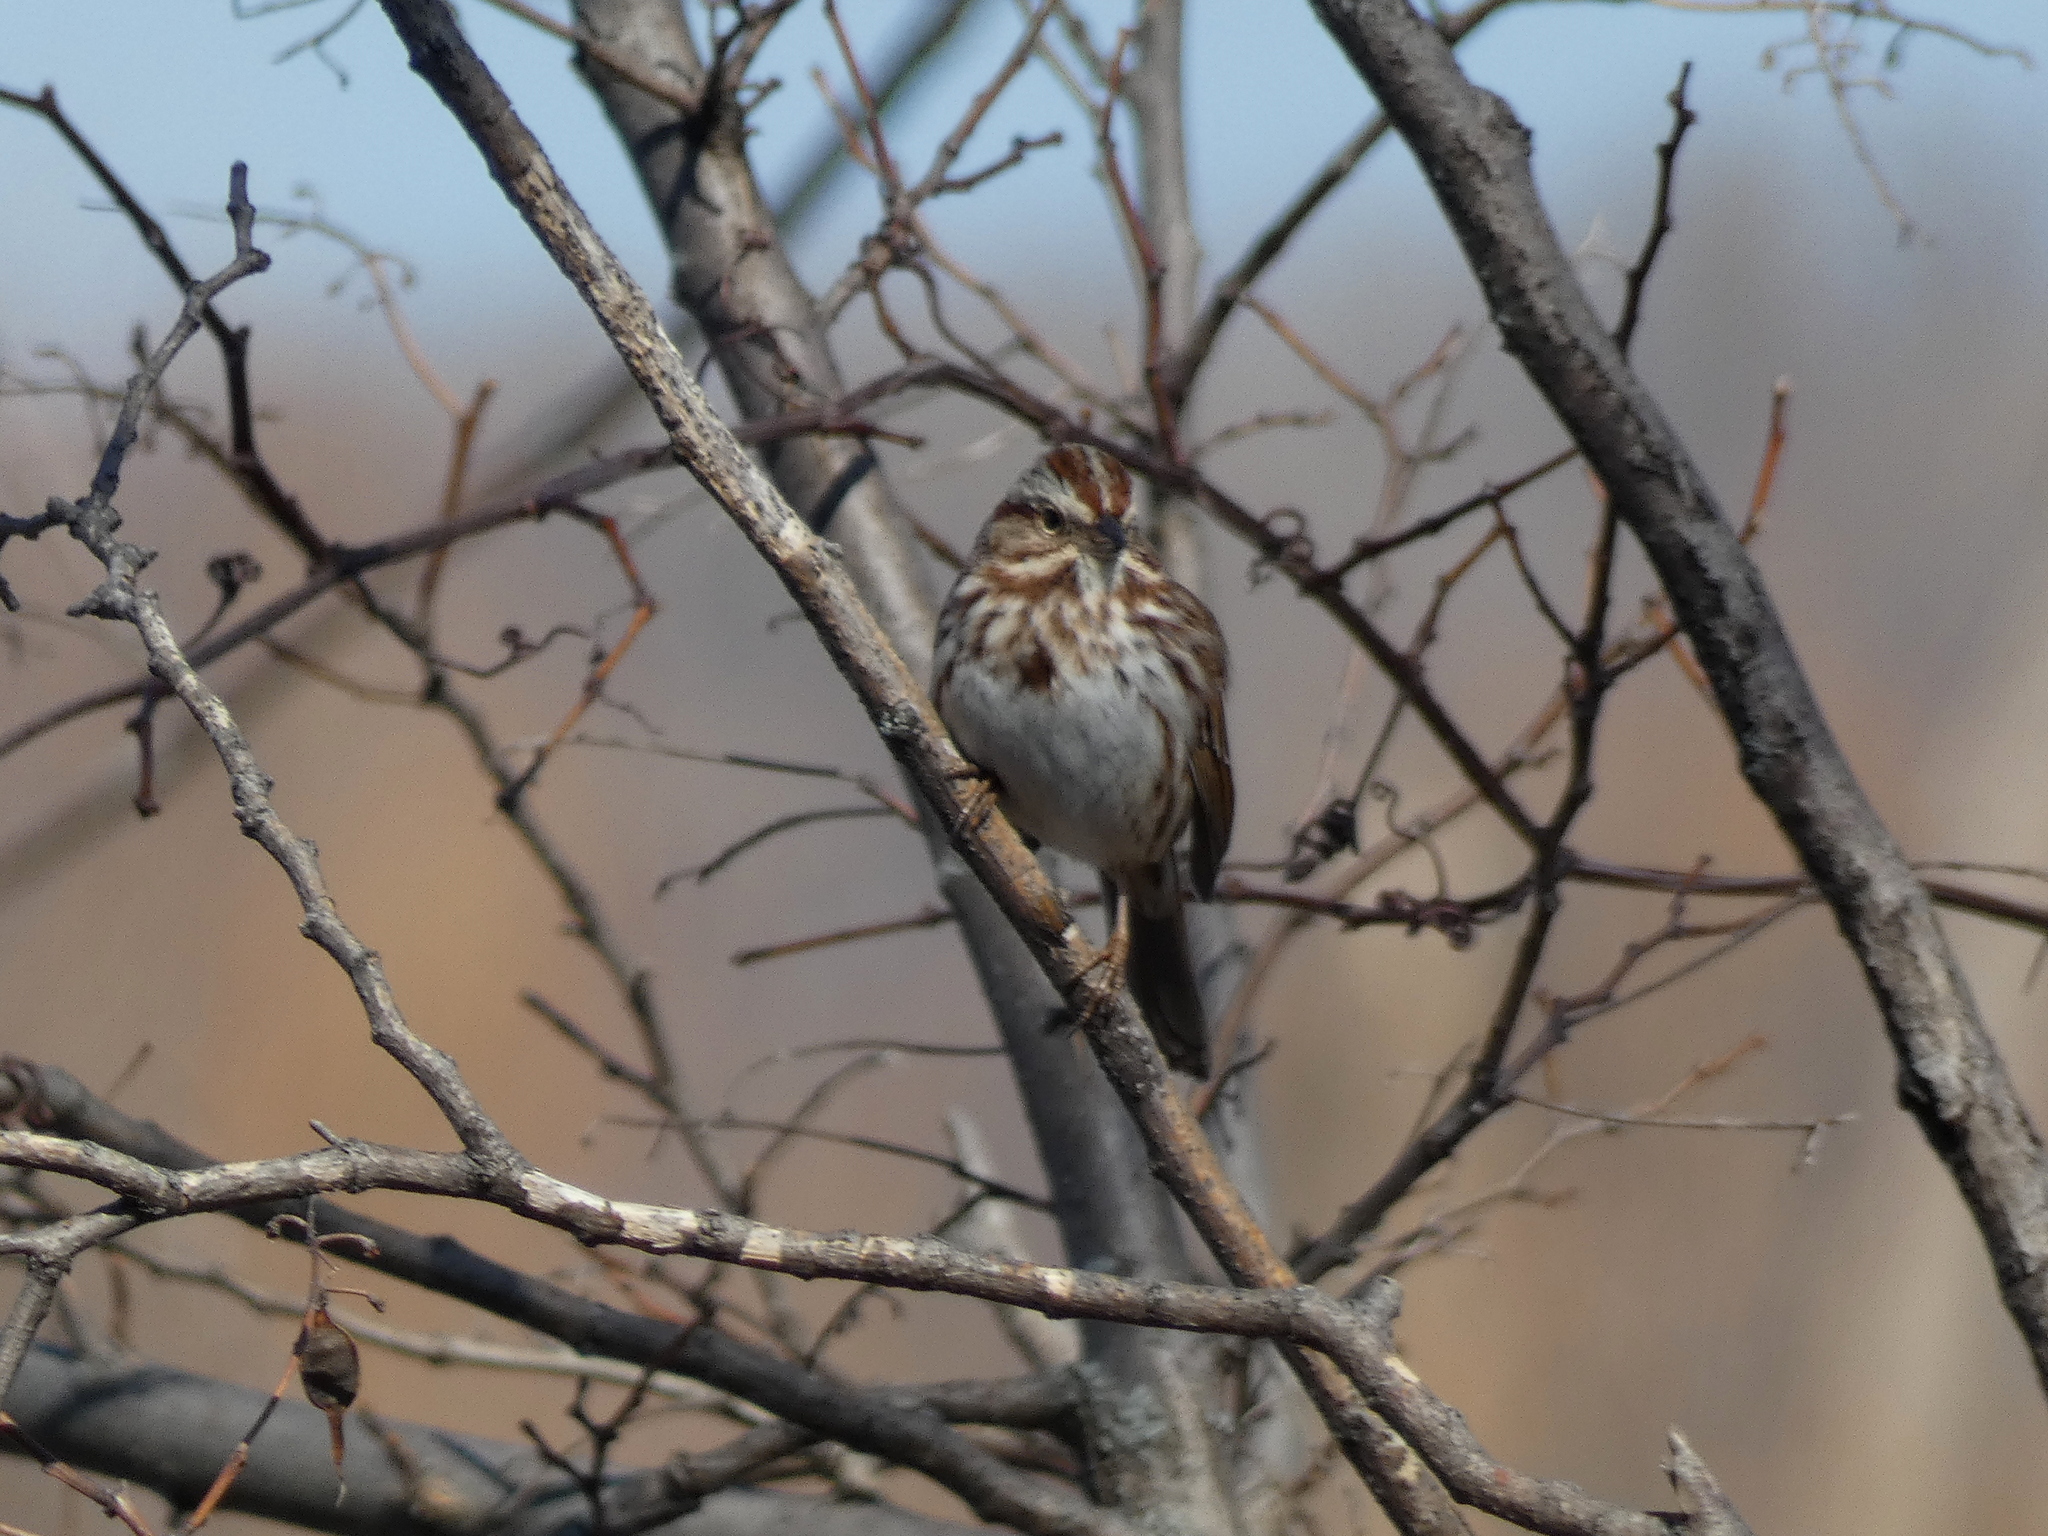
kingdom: Animalia
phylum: Chordata
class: Aves
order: Passeriformes
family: Passerellidae
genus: Melospiza
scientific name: Melospiza melodia
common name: Song sparrow
